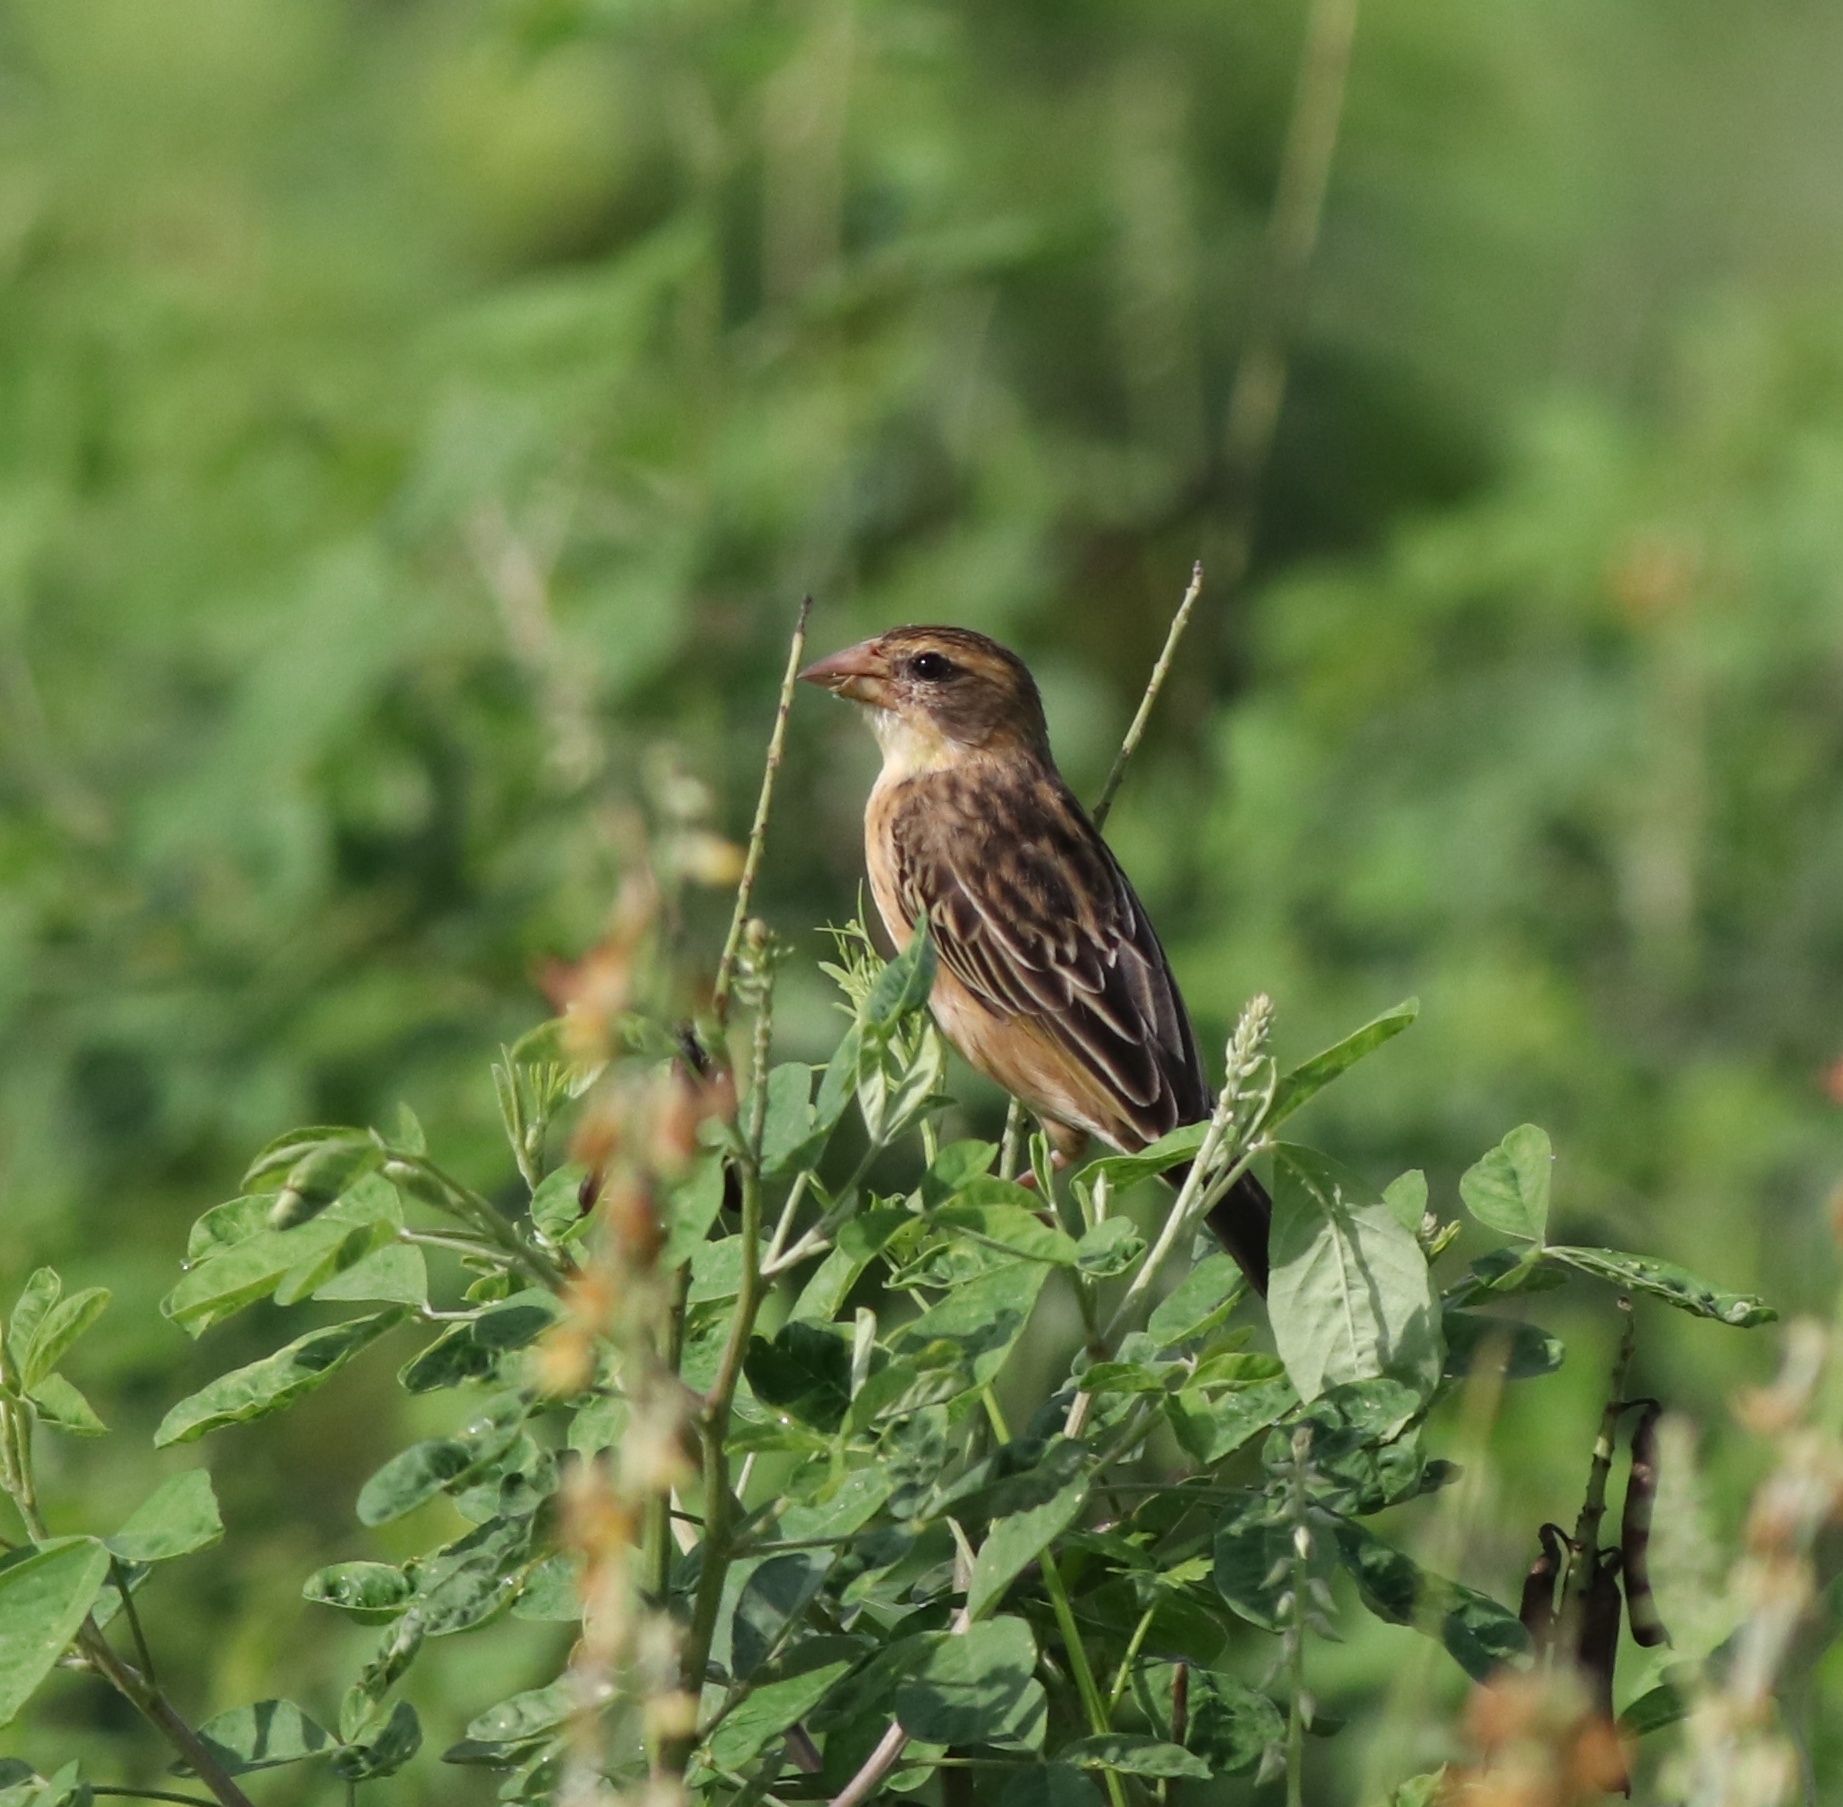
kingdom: Animalia
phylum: Chordata
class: Aves
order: Passeriformes
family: Ploceidae
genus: Ploceus
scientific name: Ploceus philippinus
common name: Baya weaver
